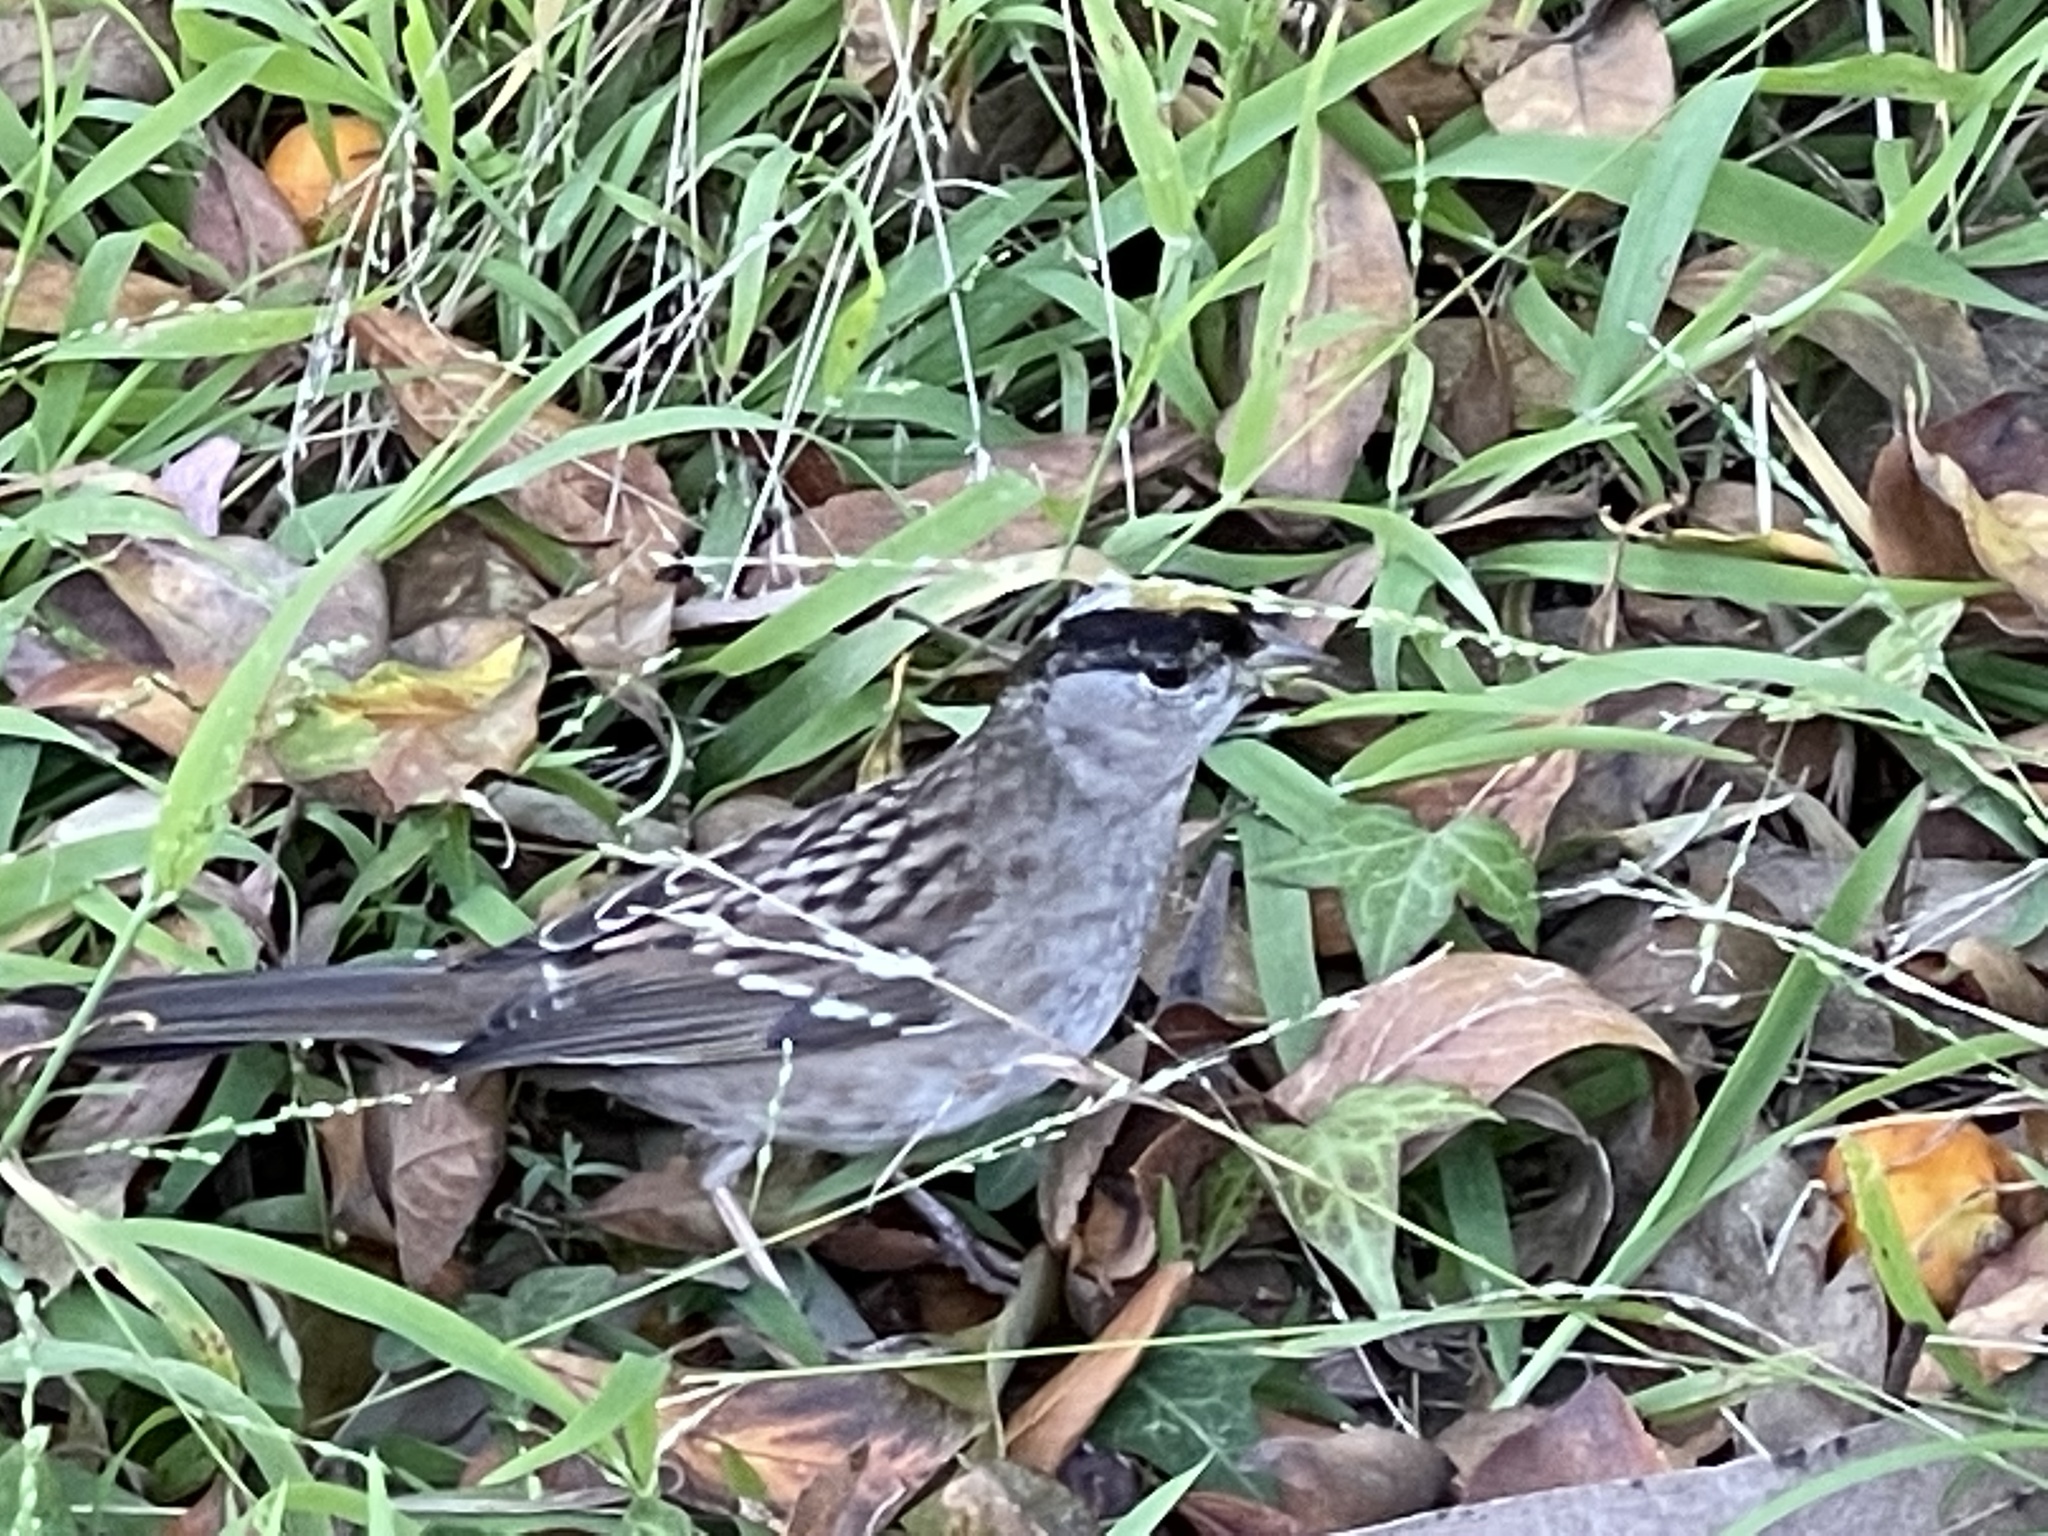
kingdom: Animalia
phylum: Chordata
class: Aves
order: Passeriformes
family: Passerellidae
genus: Zonotrichia
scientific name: Zonotrichia atricapilla
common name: Golden-crowned sparrow
